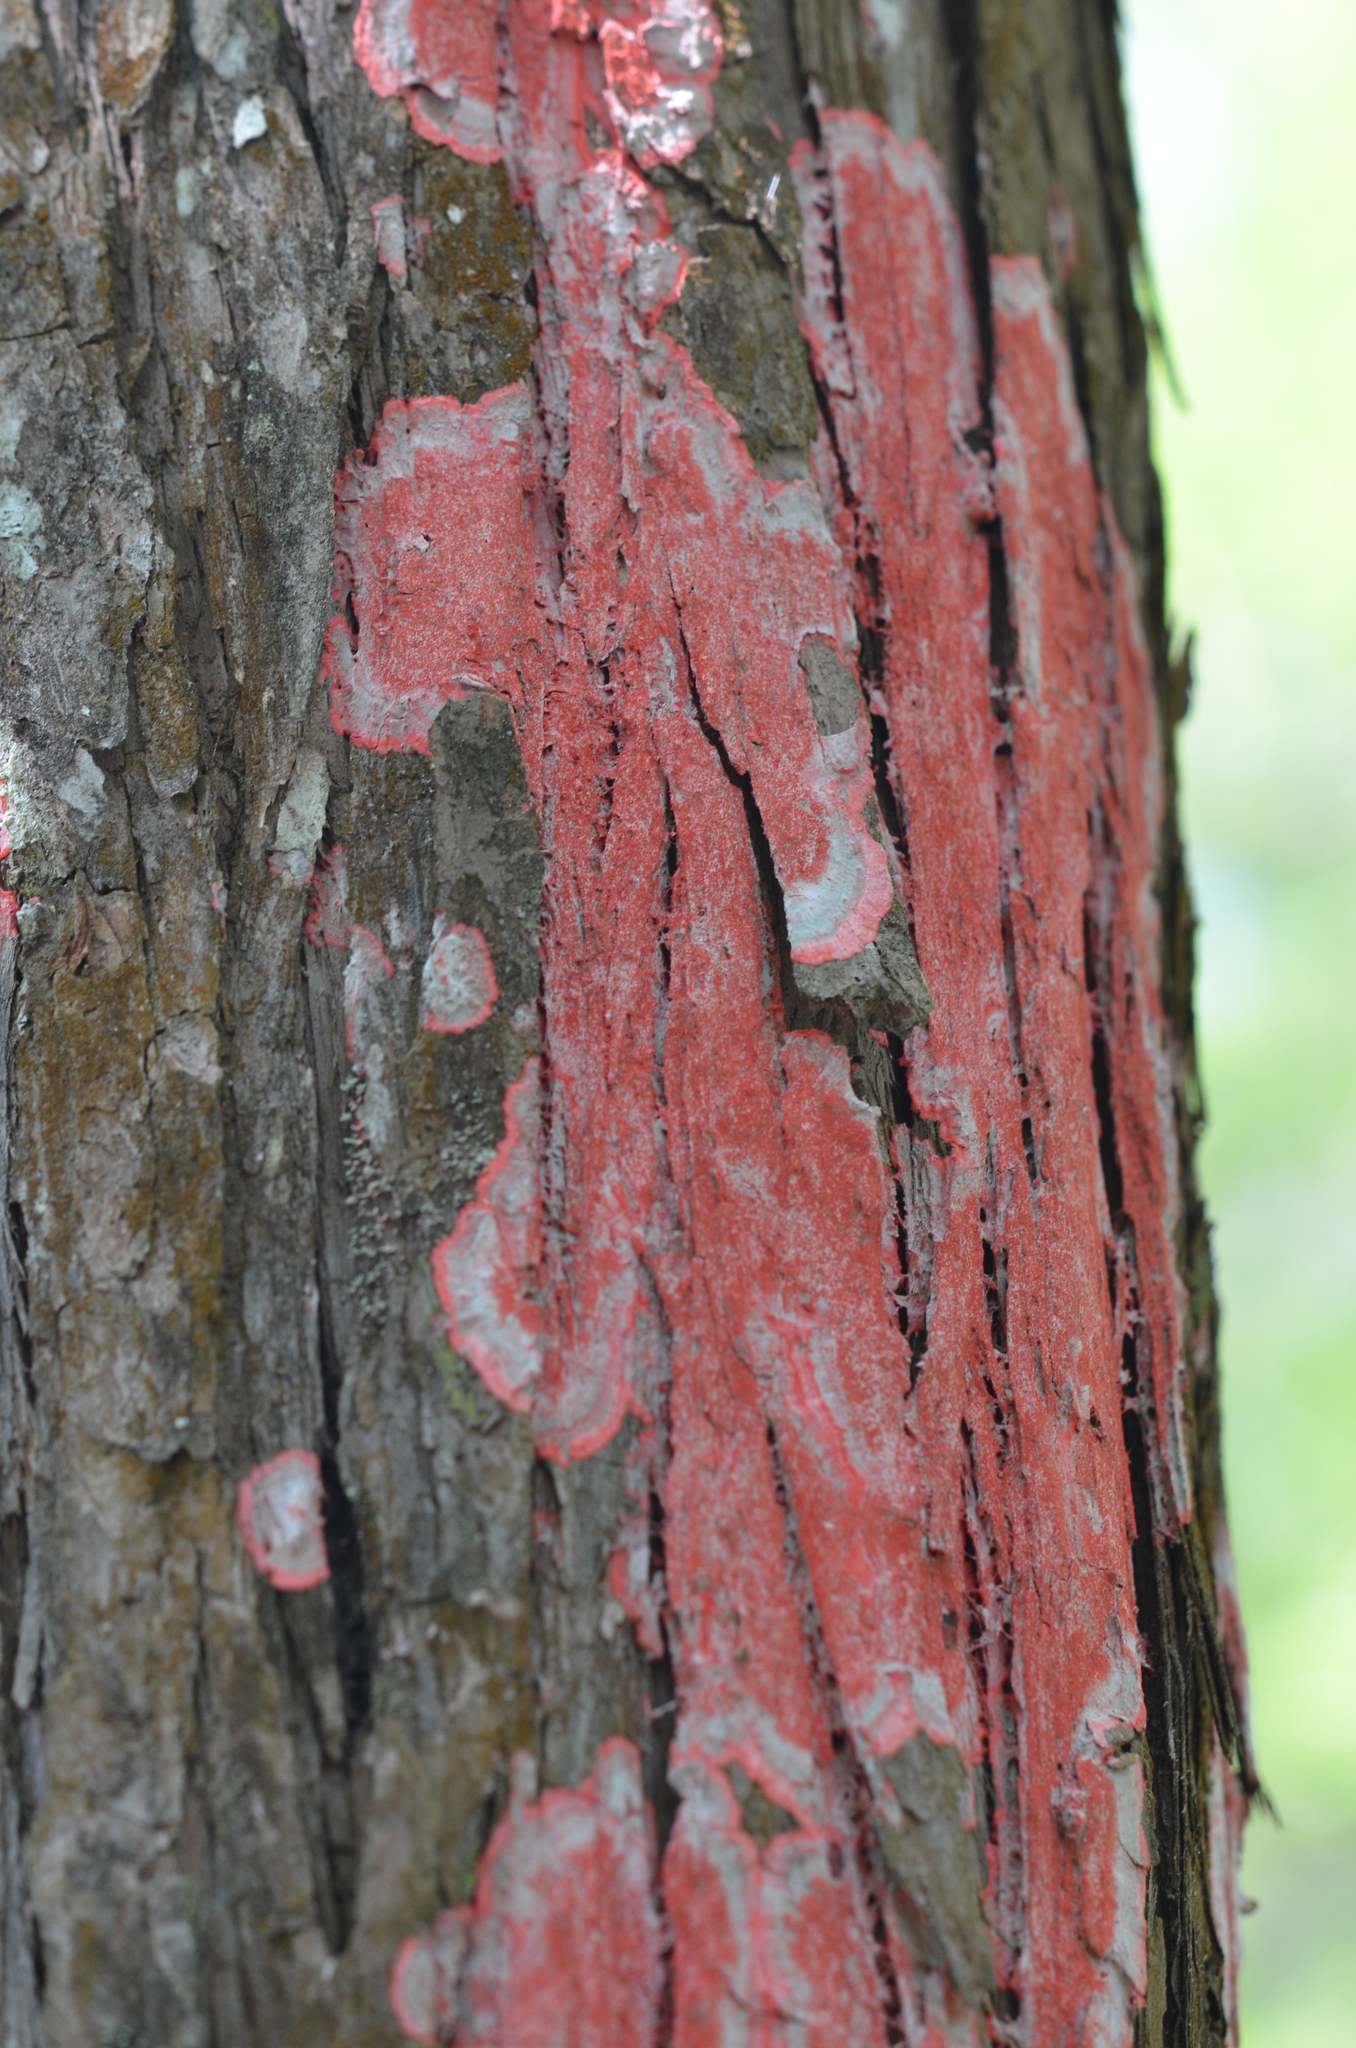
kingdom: Fungi
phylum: Ascomycota
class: Arthoniomycetes
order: Arthoniales
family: Arthoniaceae
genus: Herpothallon
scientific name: Herpothallon rubrocinctum
